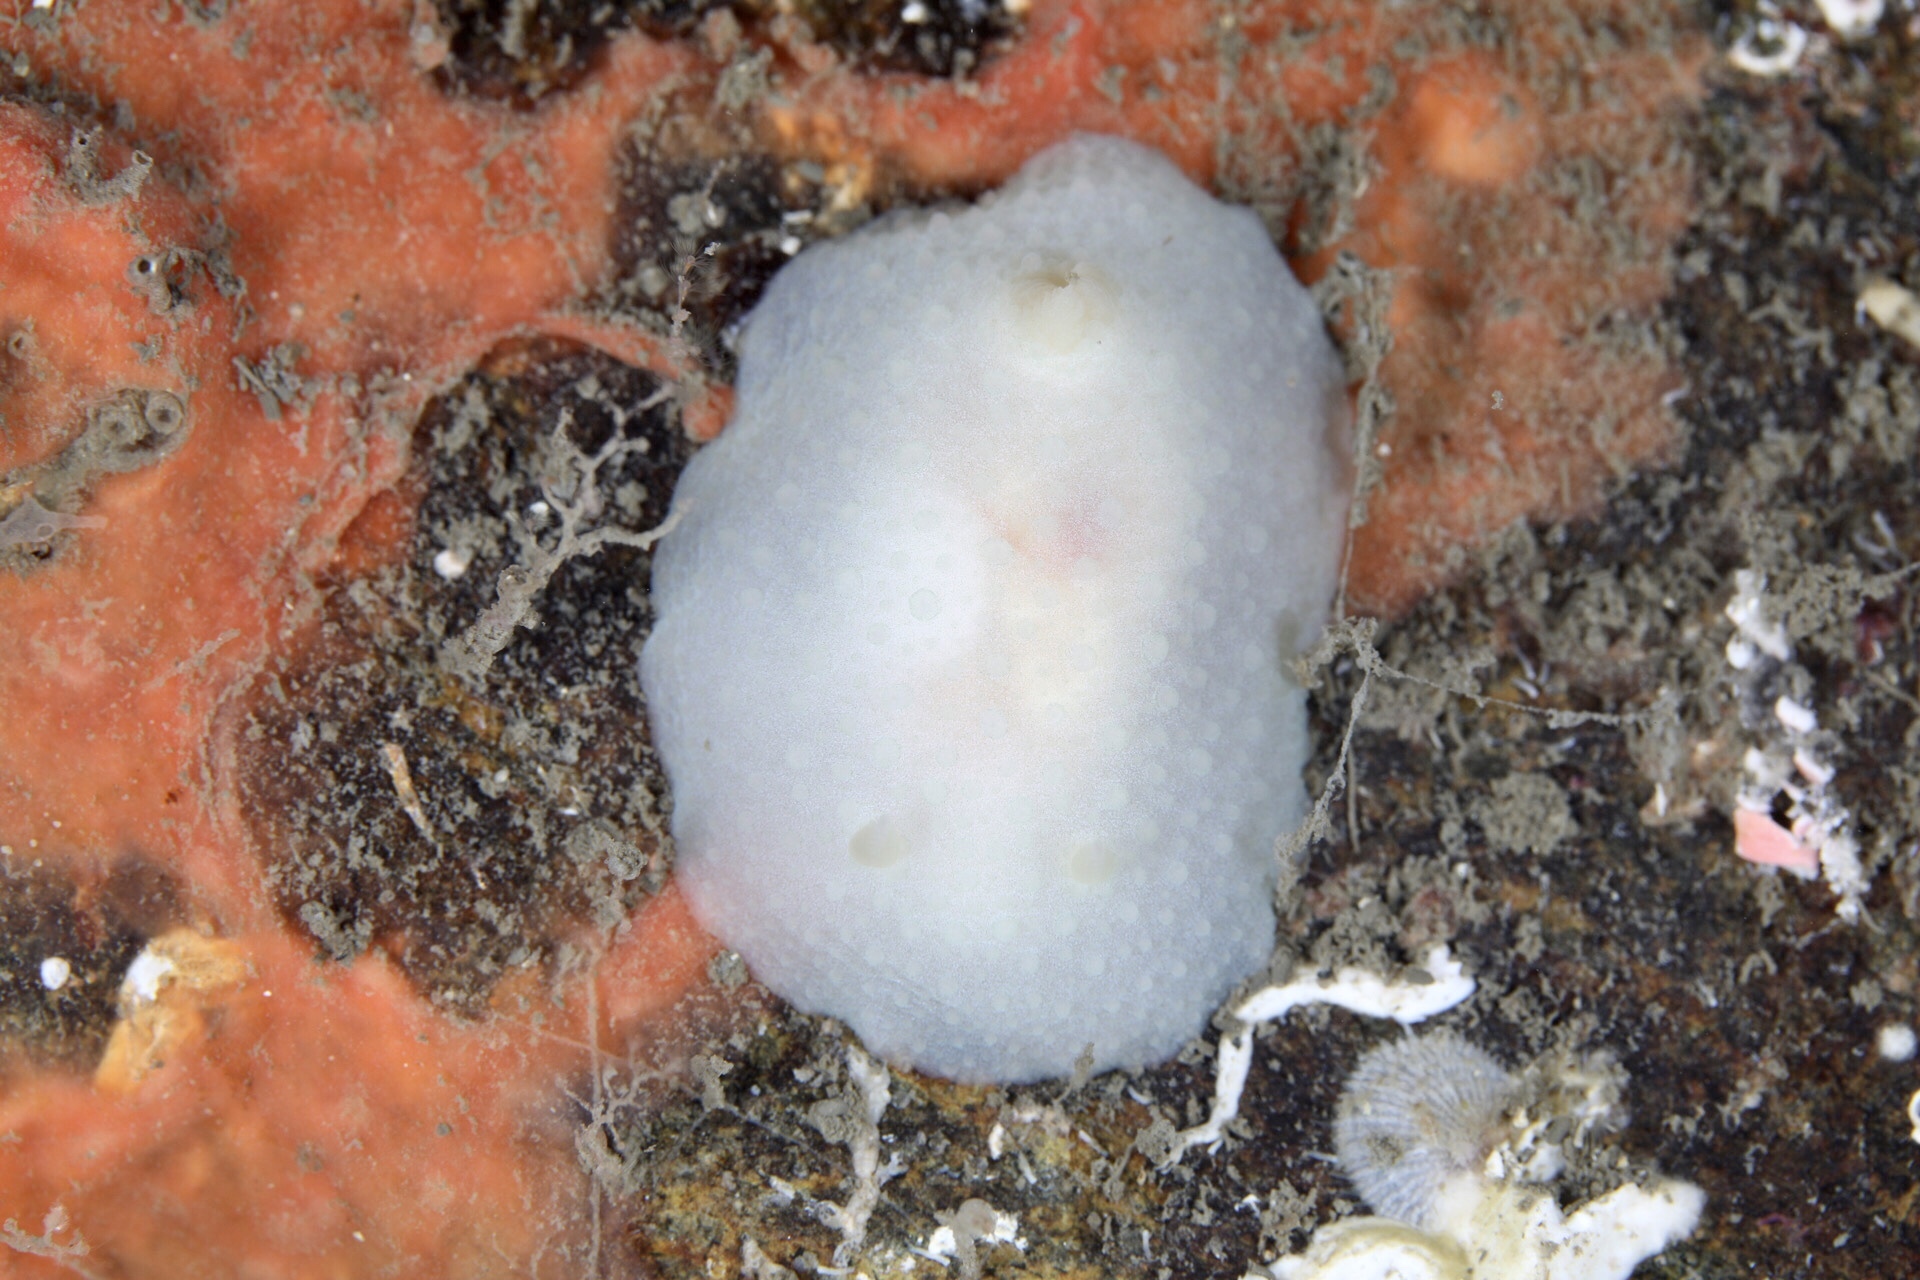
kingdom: Animalia
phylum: Mollusca
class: Gastropoda
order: Nudibranchia
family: Cadlinidae
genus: Aldisa
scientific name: Aldisa zetlandica
